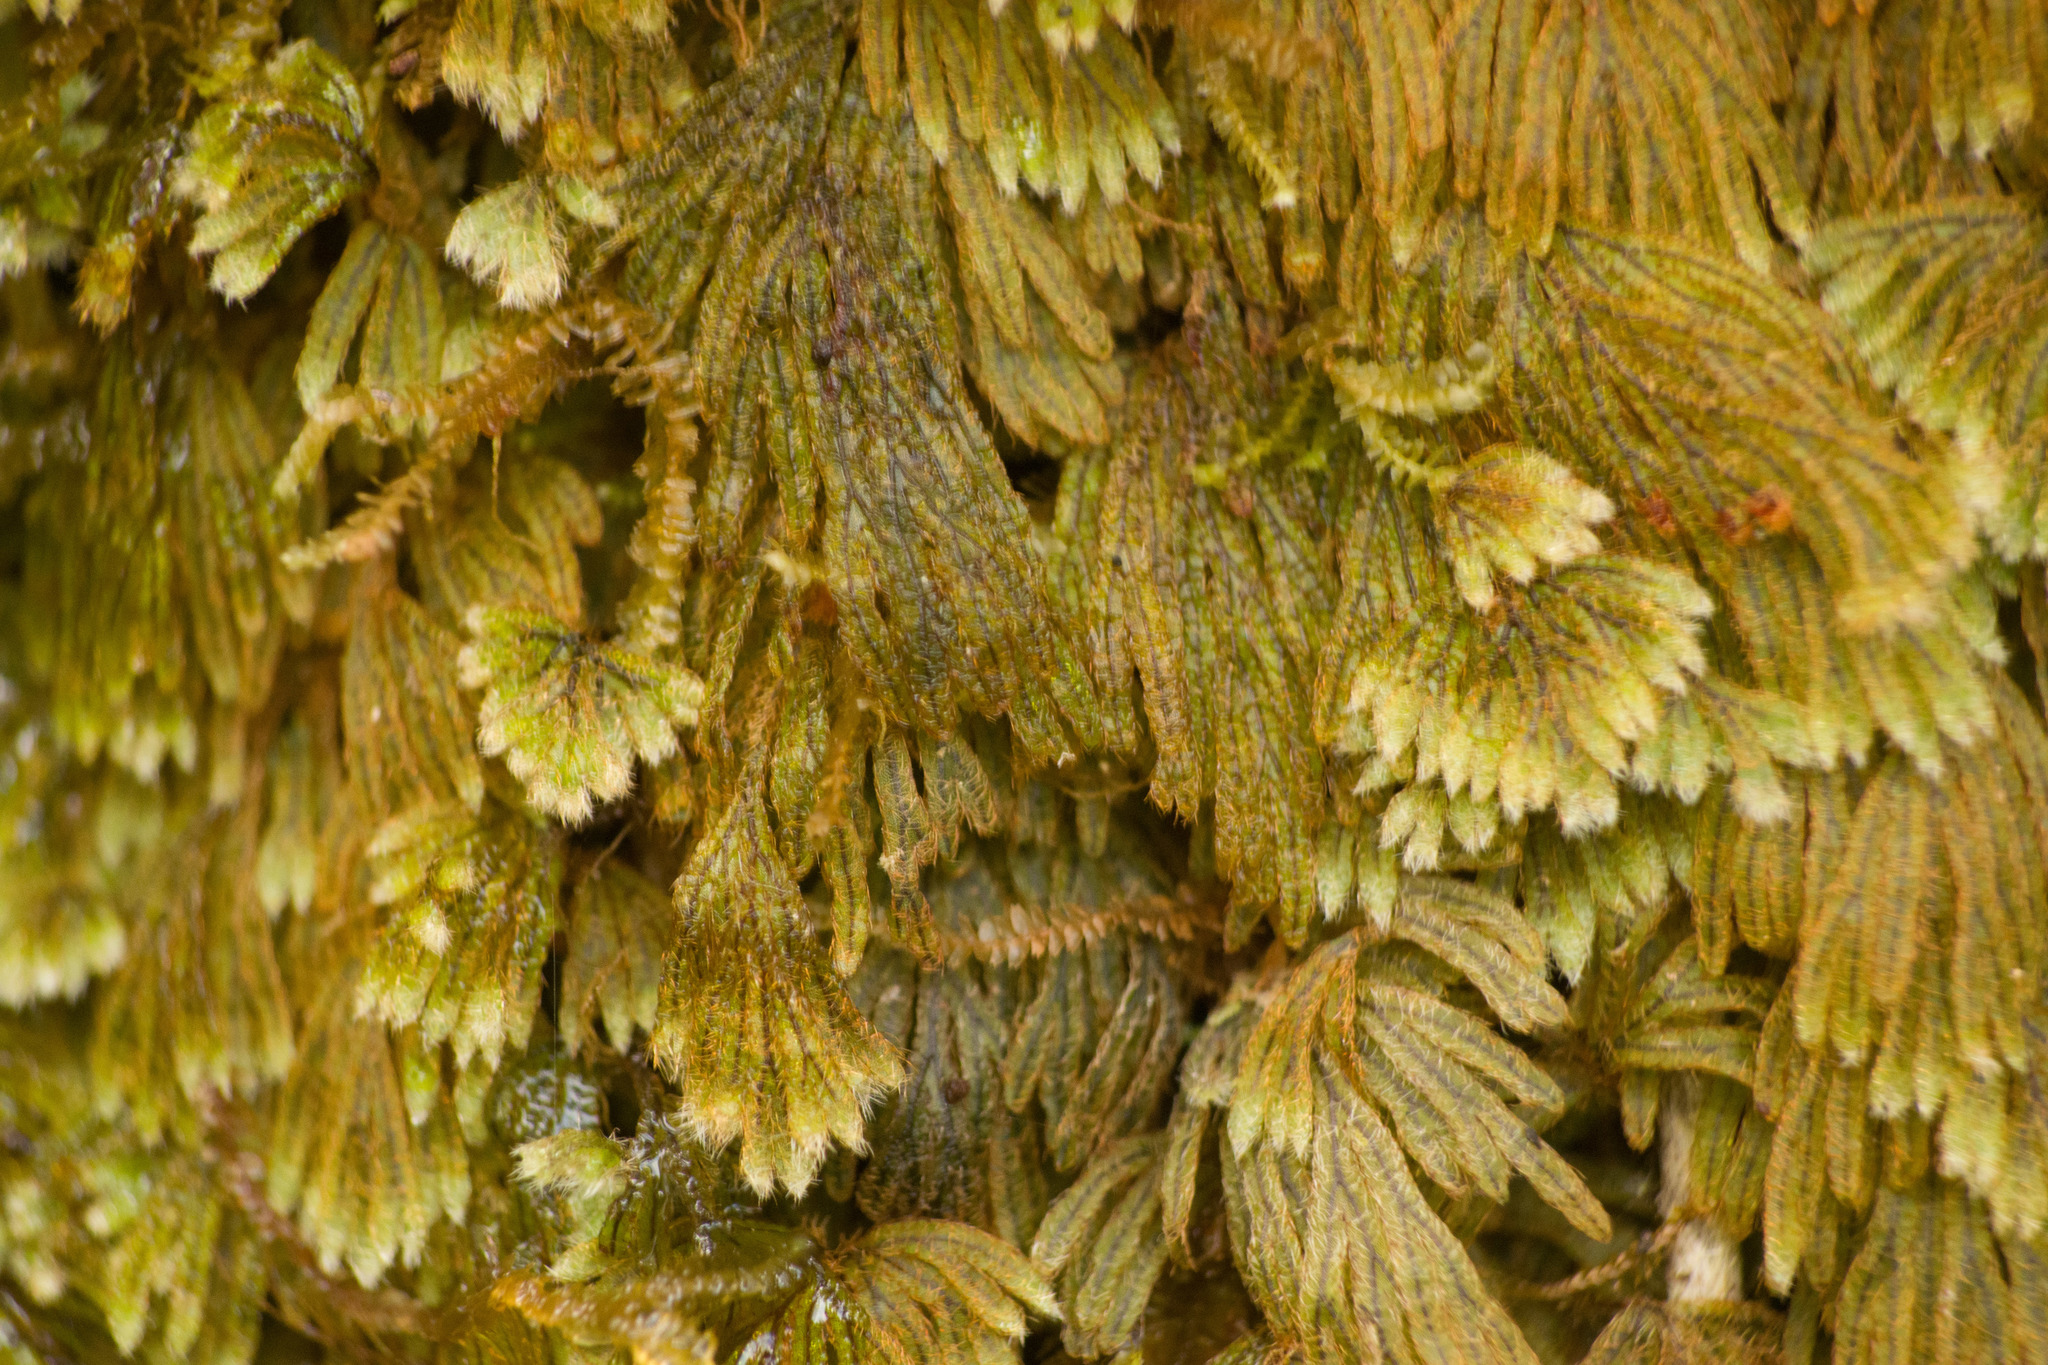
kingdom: Plantae
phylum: Tracheophyta
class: Polypodiopsida
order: Hymenophyllales
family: Hymenophyllaceae
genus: Hymenophyllum
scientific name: Hymenophyllum obtusum
